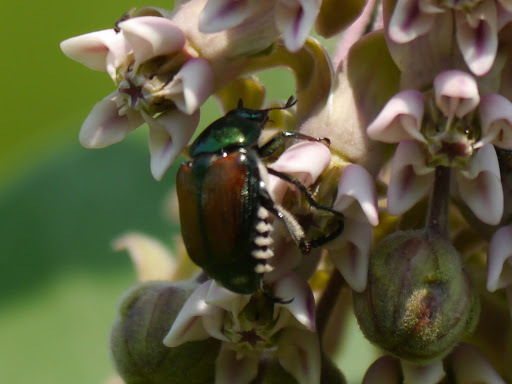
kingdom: Animalia
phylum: Arthropoda
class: Insecta
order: Coleoptera
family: Scarabaeidae
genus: Popillia
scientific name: Popillia japonica
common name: Japanese beetle
